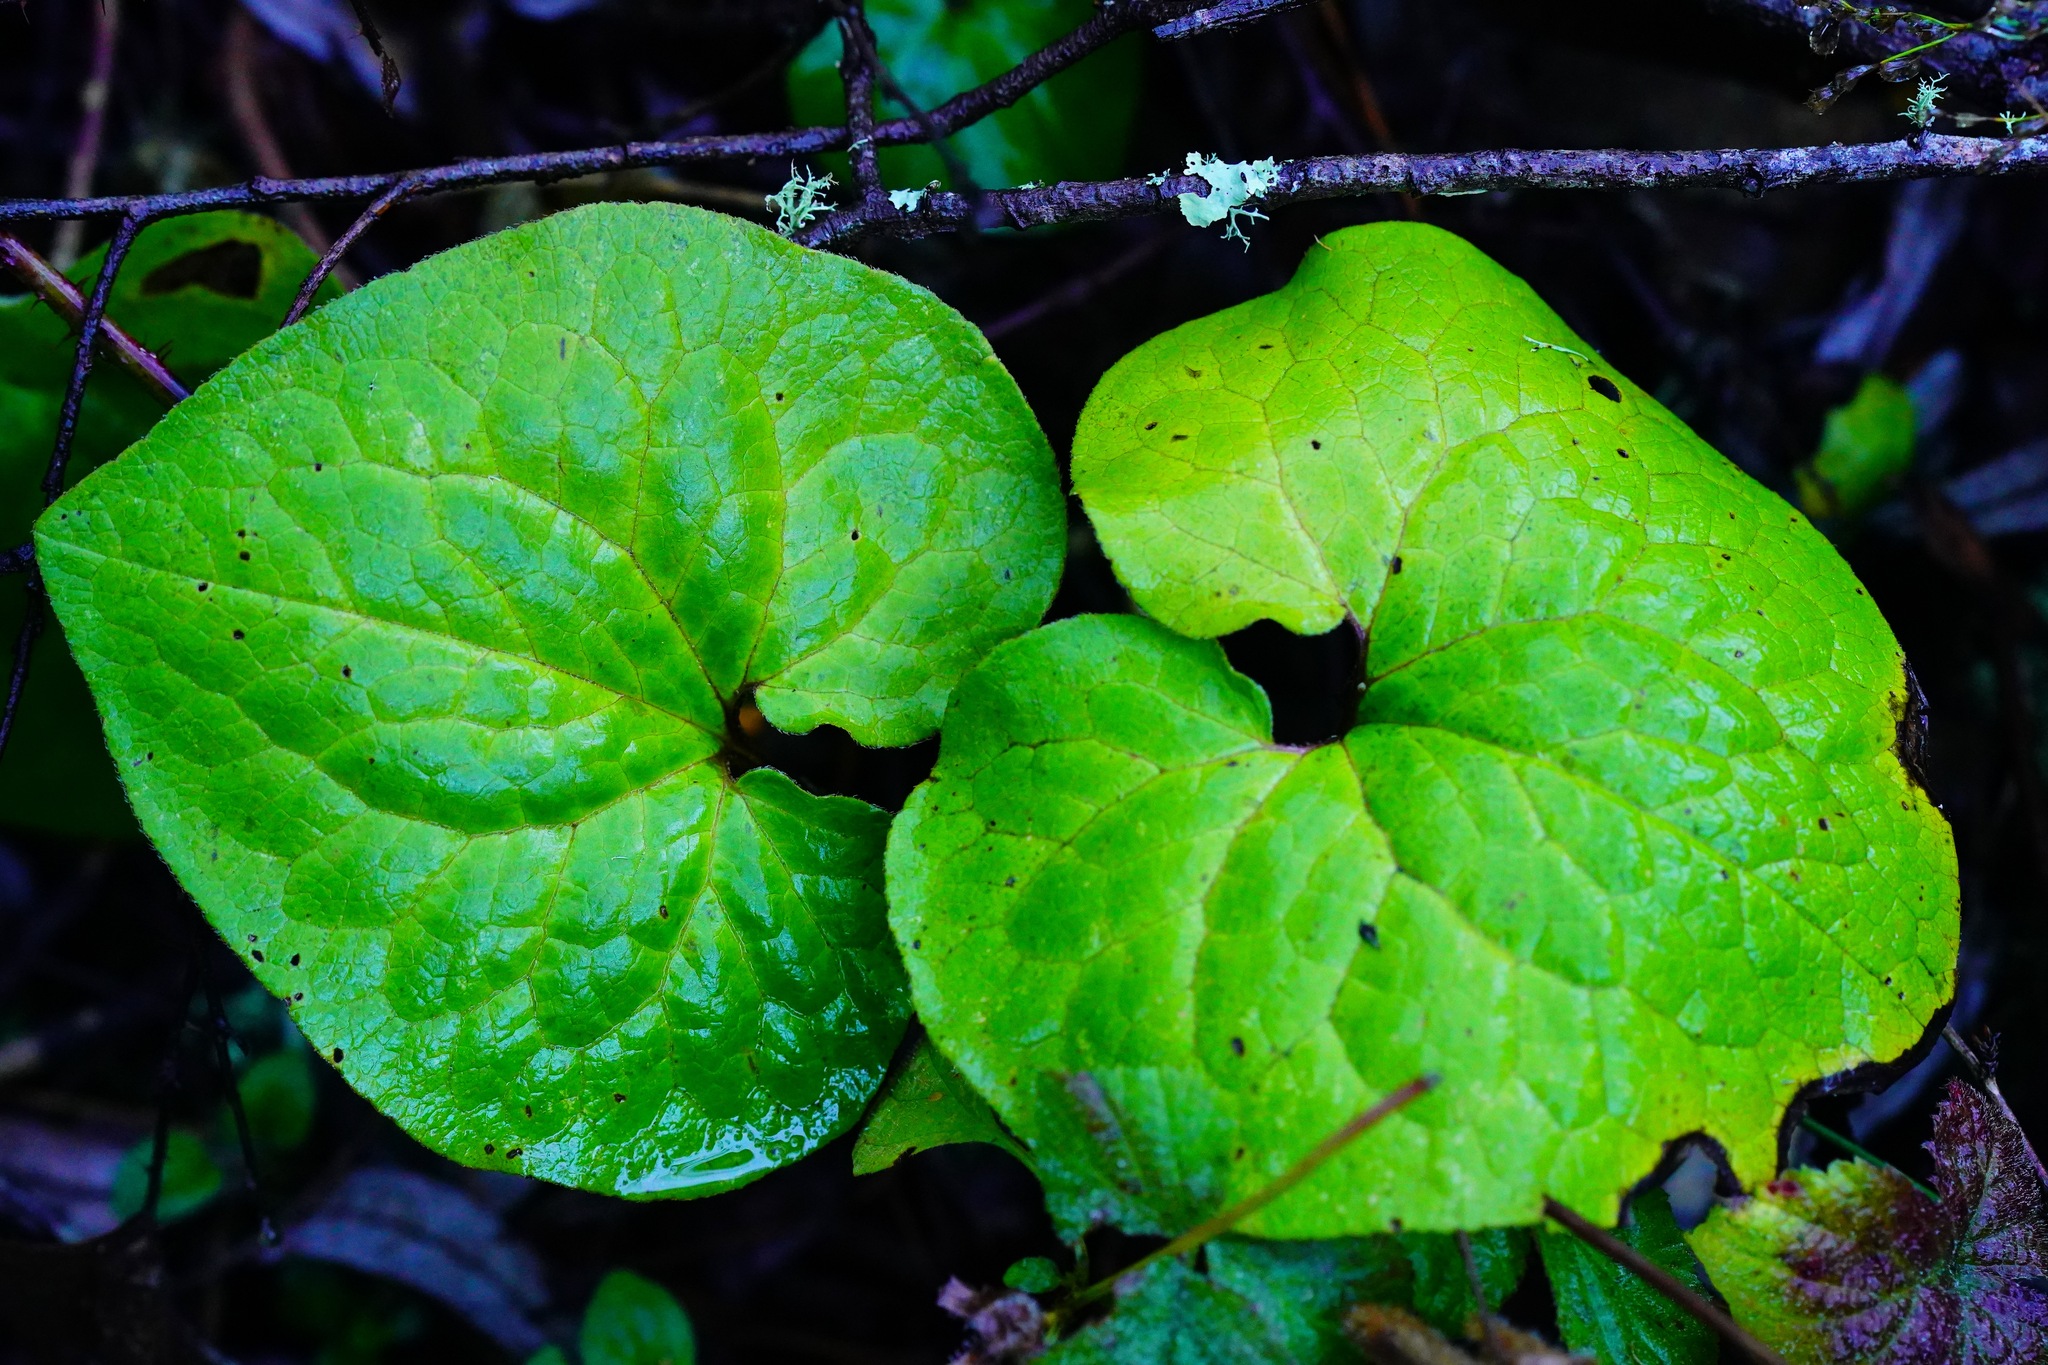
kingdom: Plantae
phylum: Tracheophyta
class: Magnoliopsida
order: Piperales
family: Aristolochiaceae
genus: Asarum
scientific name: Asarum caudatum
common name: Wild ginger
